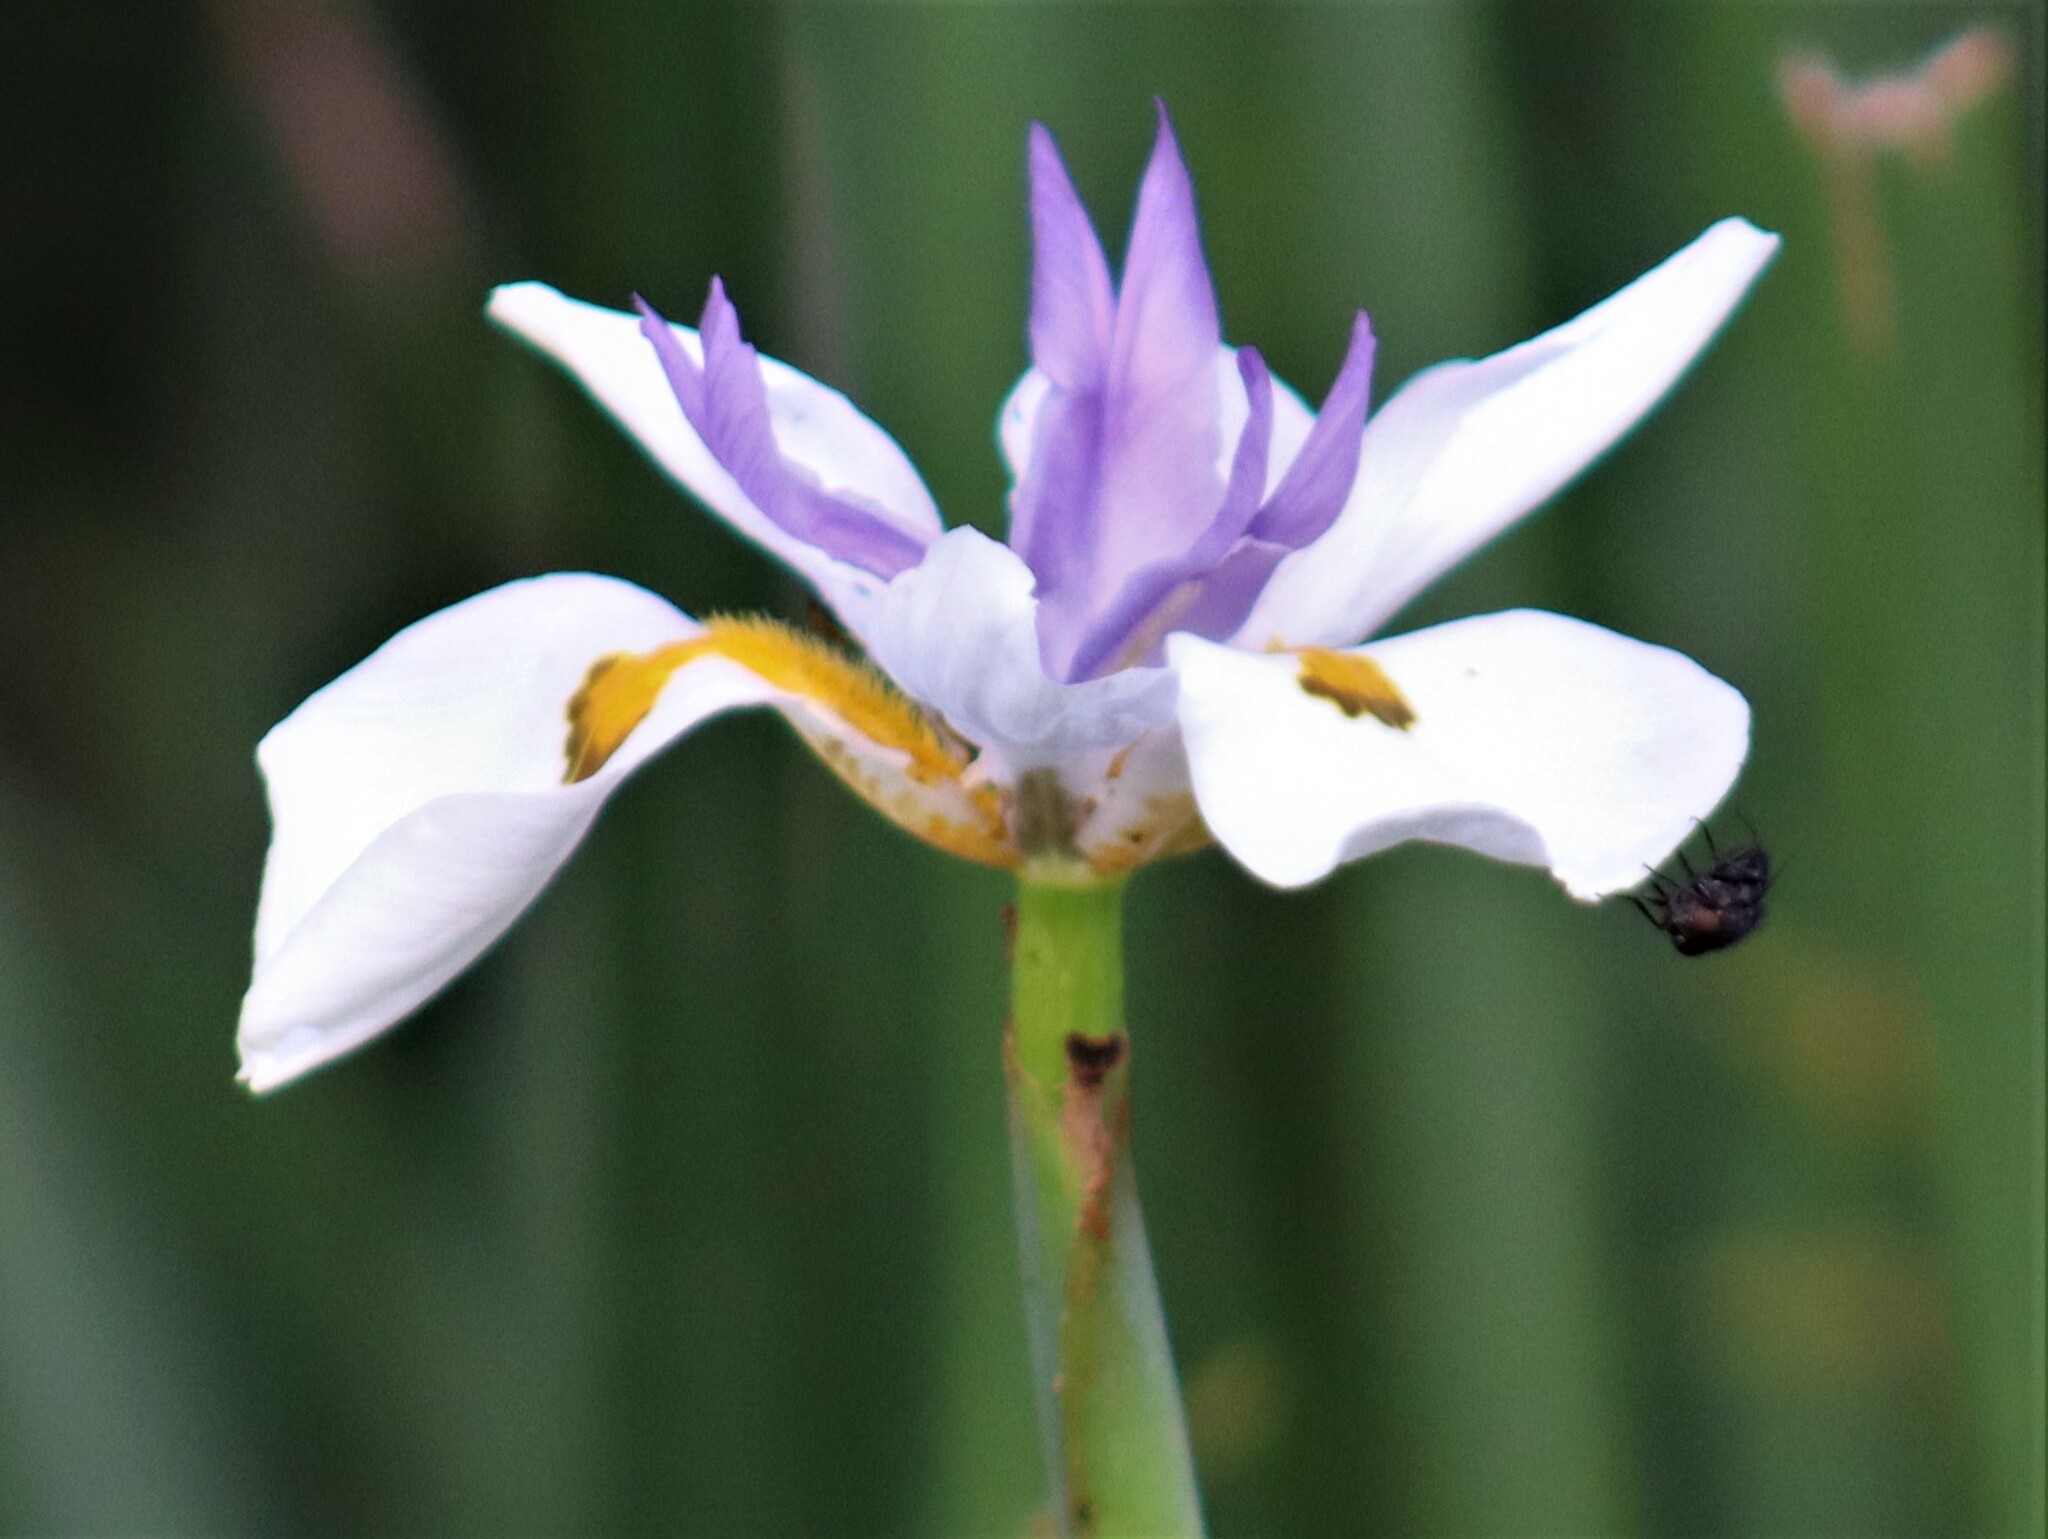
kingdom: Plantae
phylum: Tracheophyta
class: Liliopsida
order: Asparagales
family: Iridaceae
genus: Dietes
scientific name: Dietes grandiflora
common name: Wild iris
